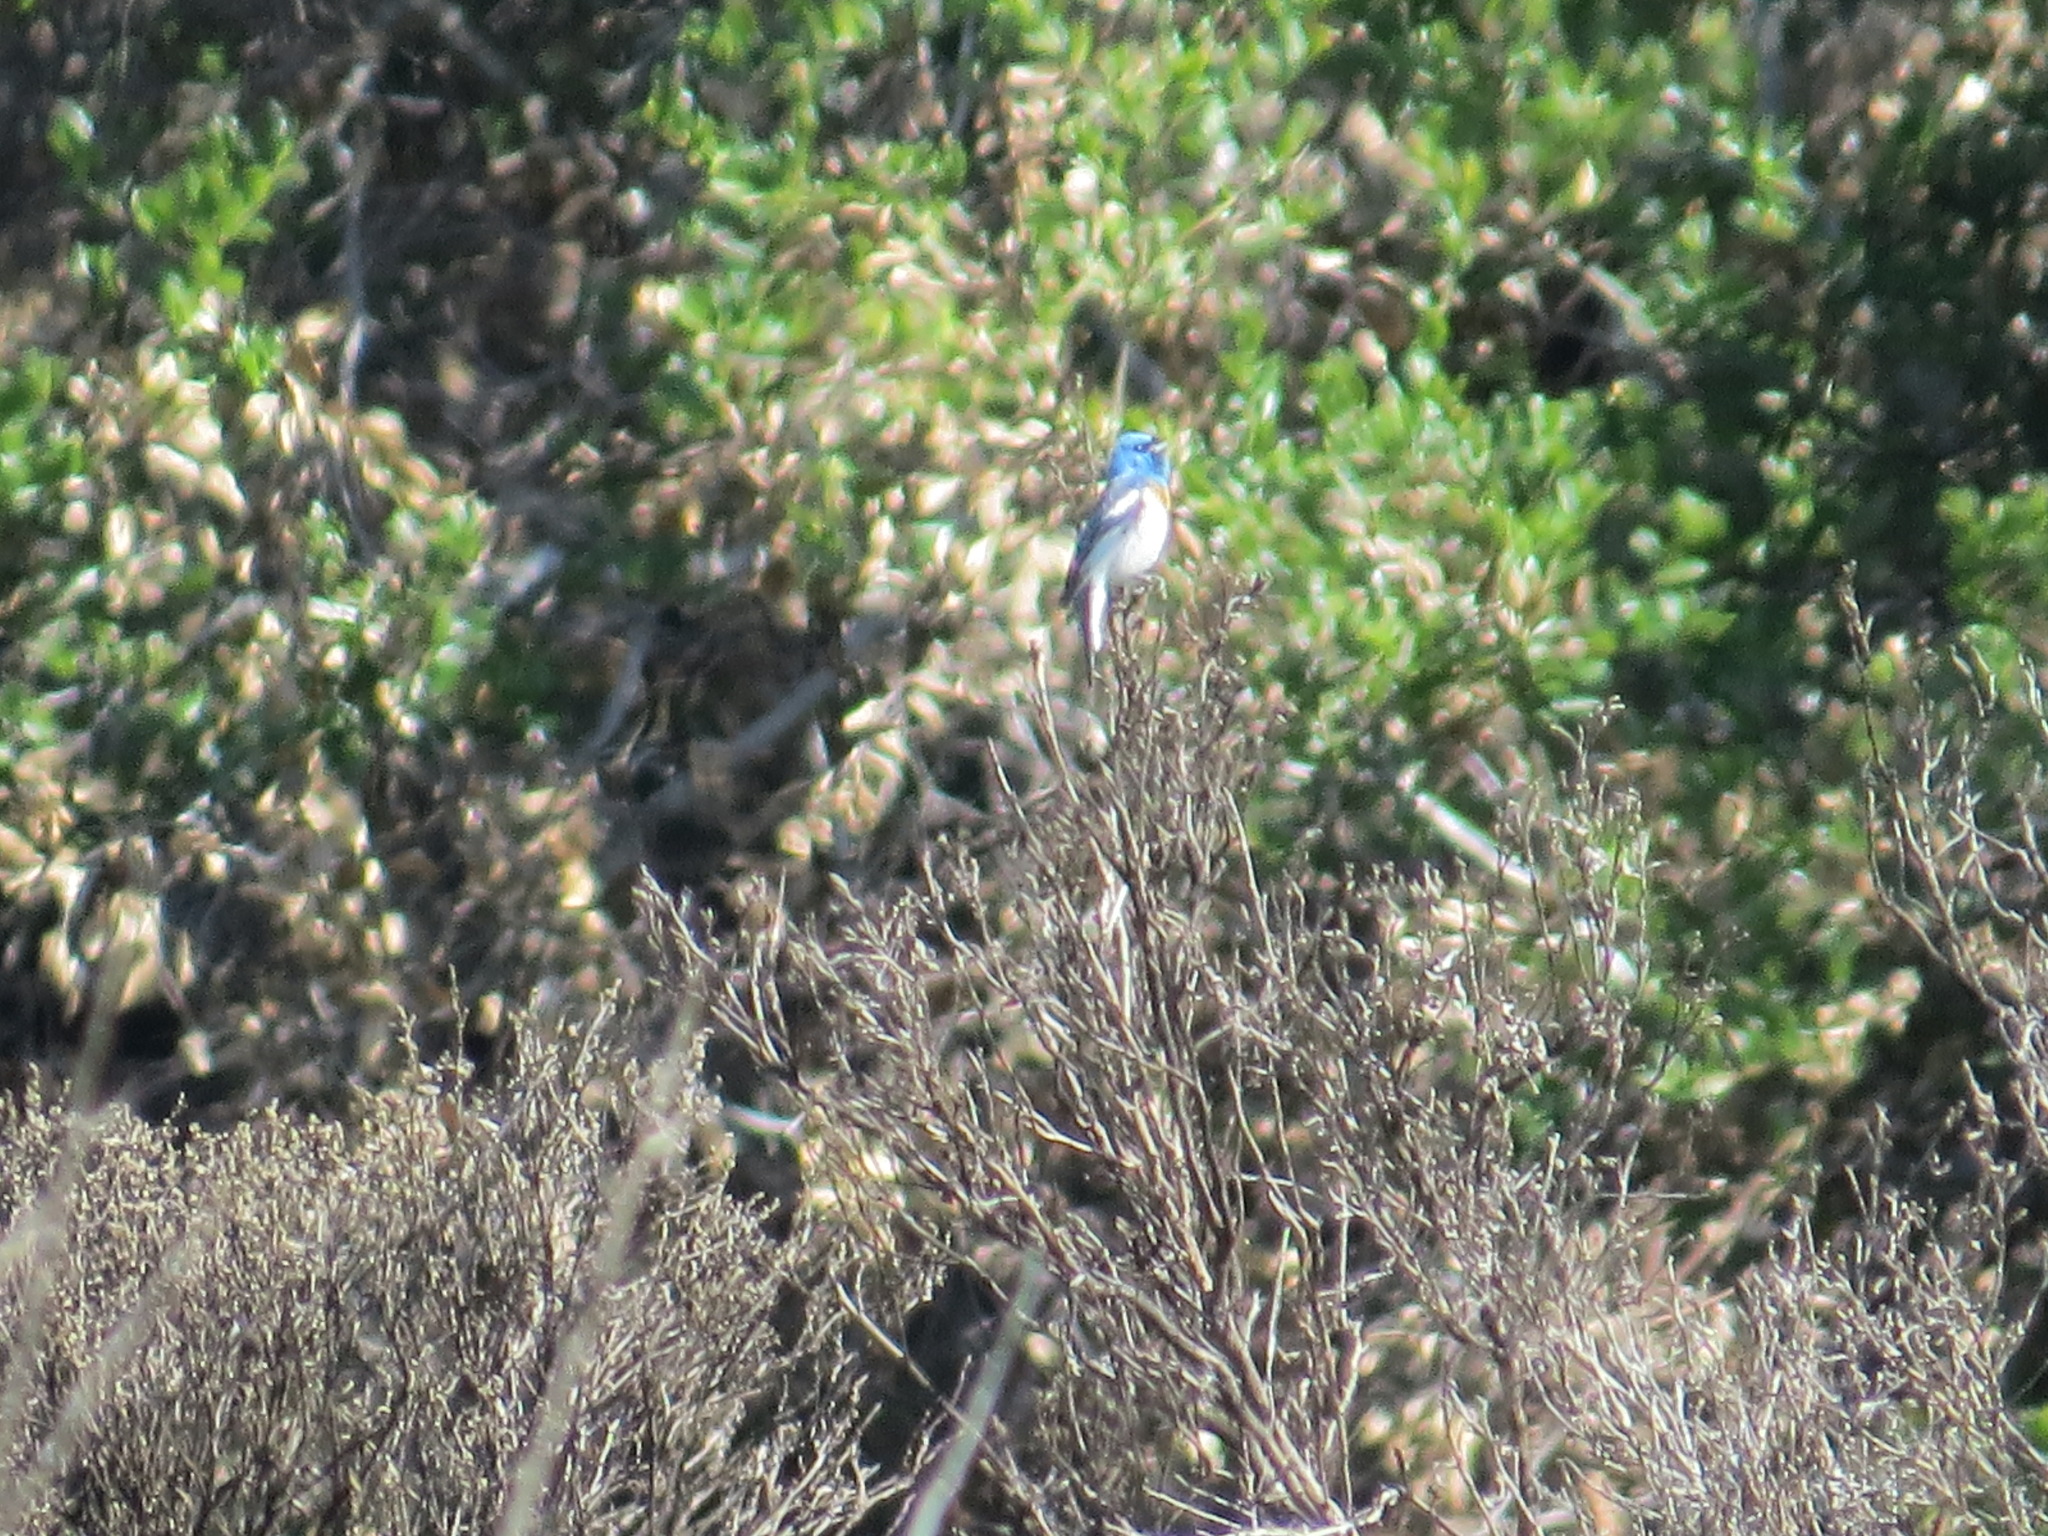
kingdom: Animalia
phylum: Chordata
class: Aves
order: Passeriformes
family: Cardinalidae
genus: Passerina
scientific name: Passerina amoena
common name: Lazuli bunting
